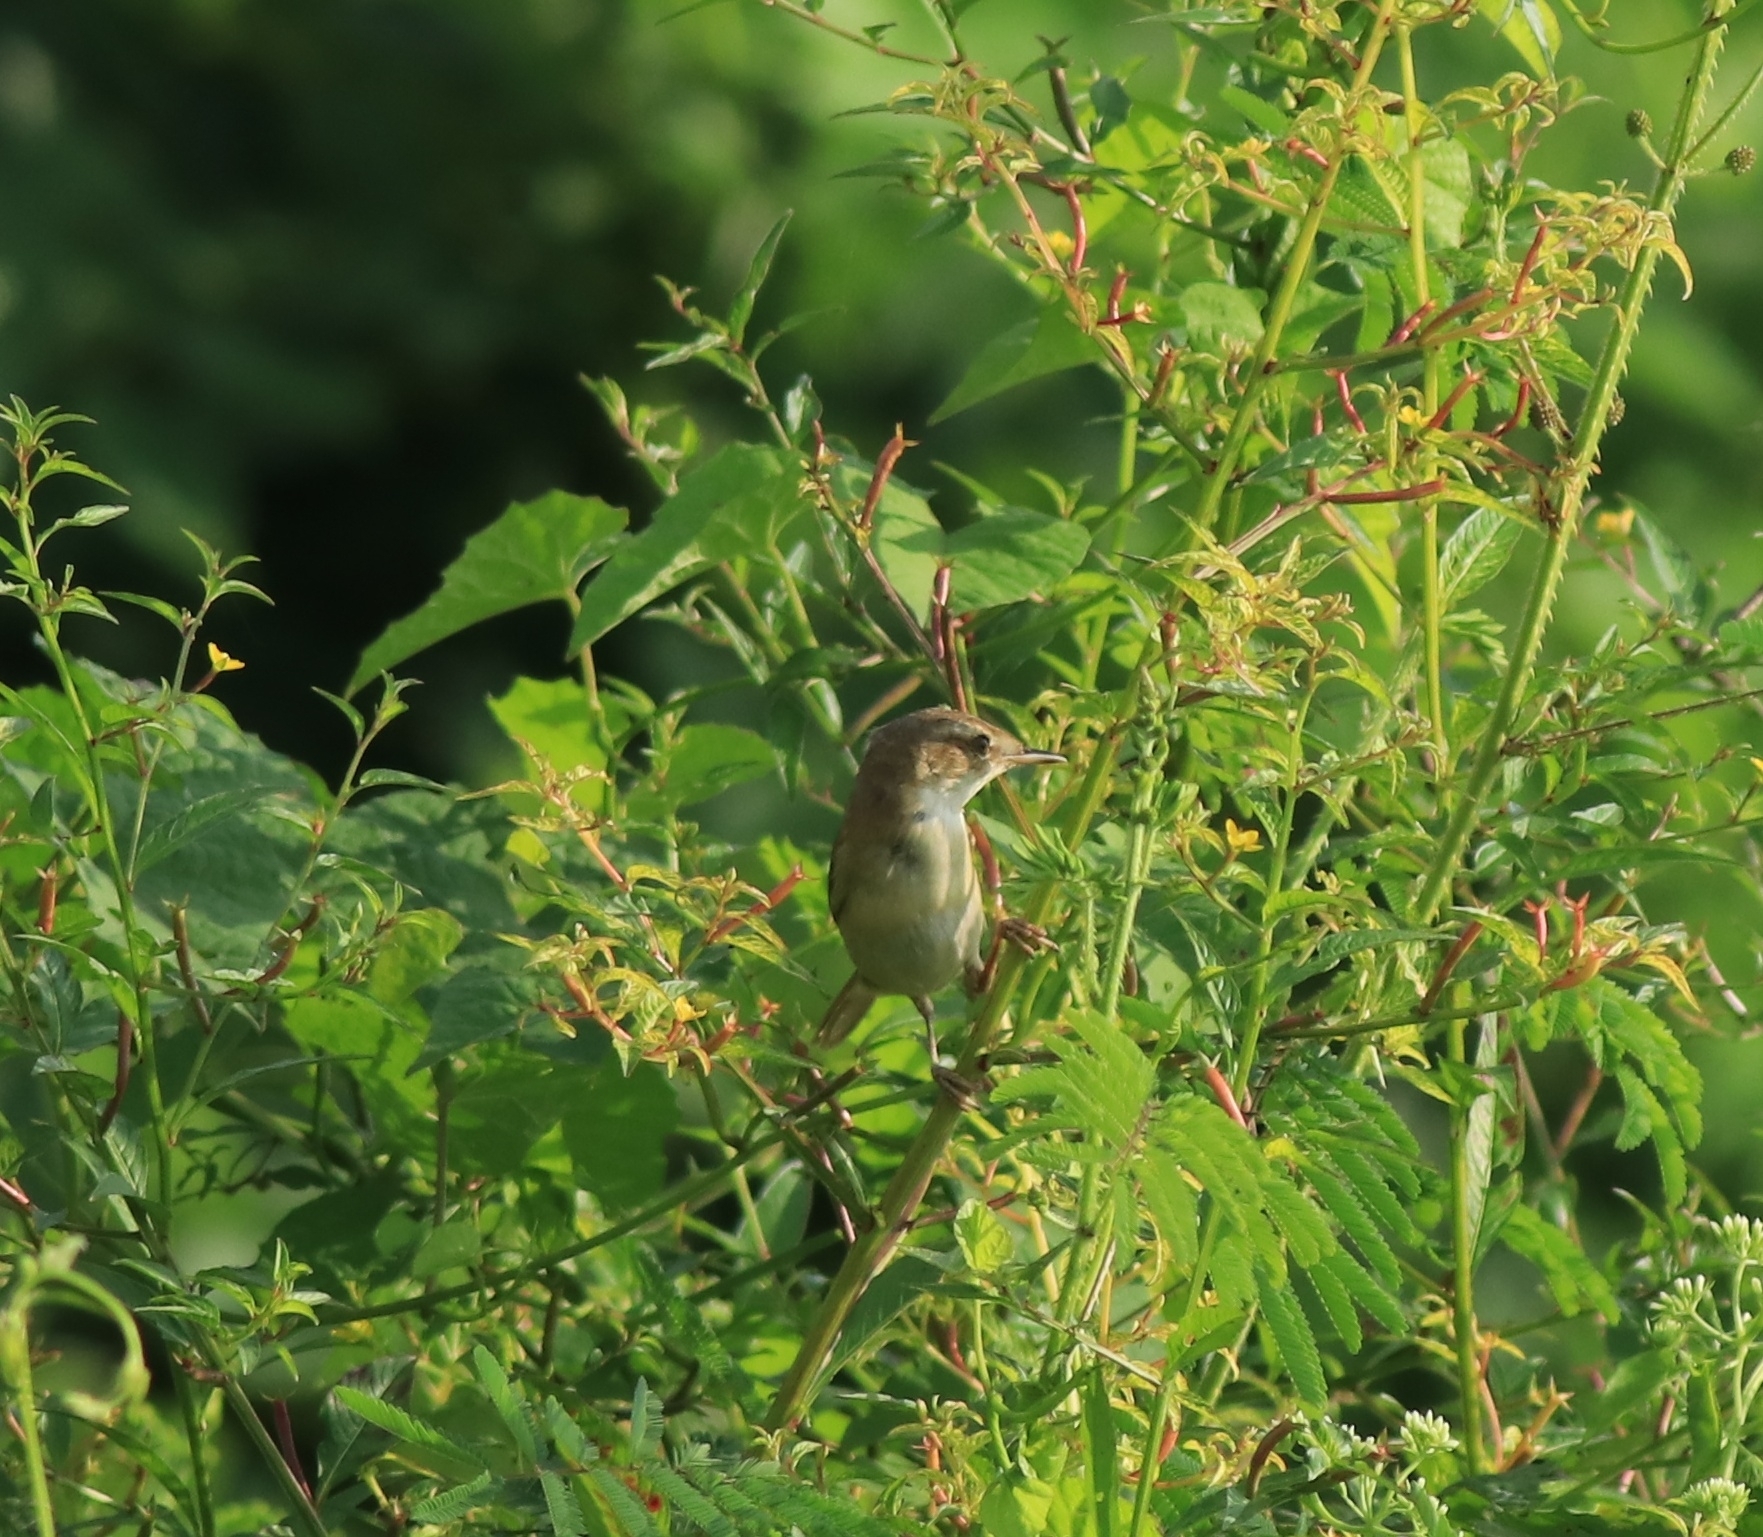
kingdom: Animalia
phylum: Chordata
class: Aves
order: Passeriformes
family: Acrocephalidae
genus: Acrocephalus
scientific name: Acrocephalus agricola
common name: Paddyfield warbler
